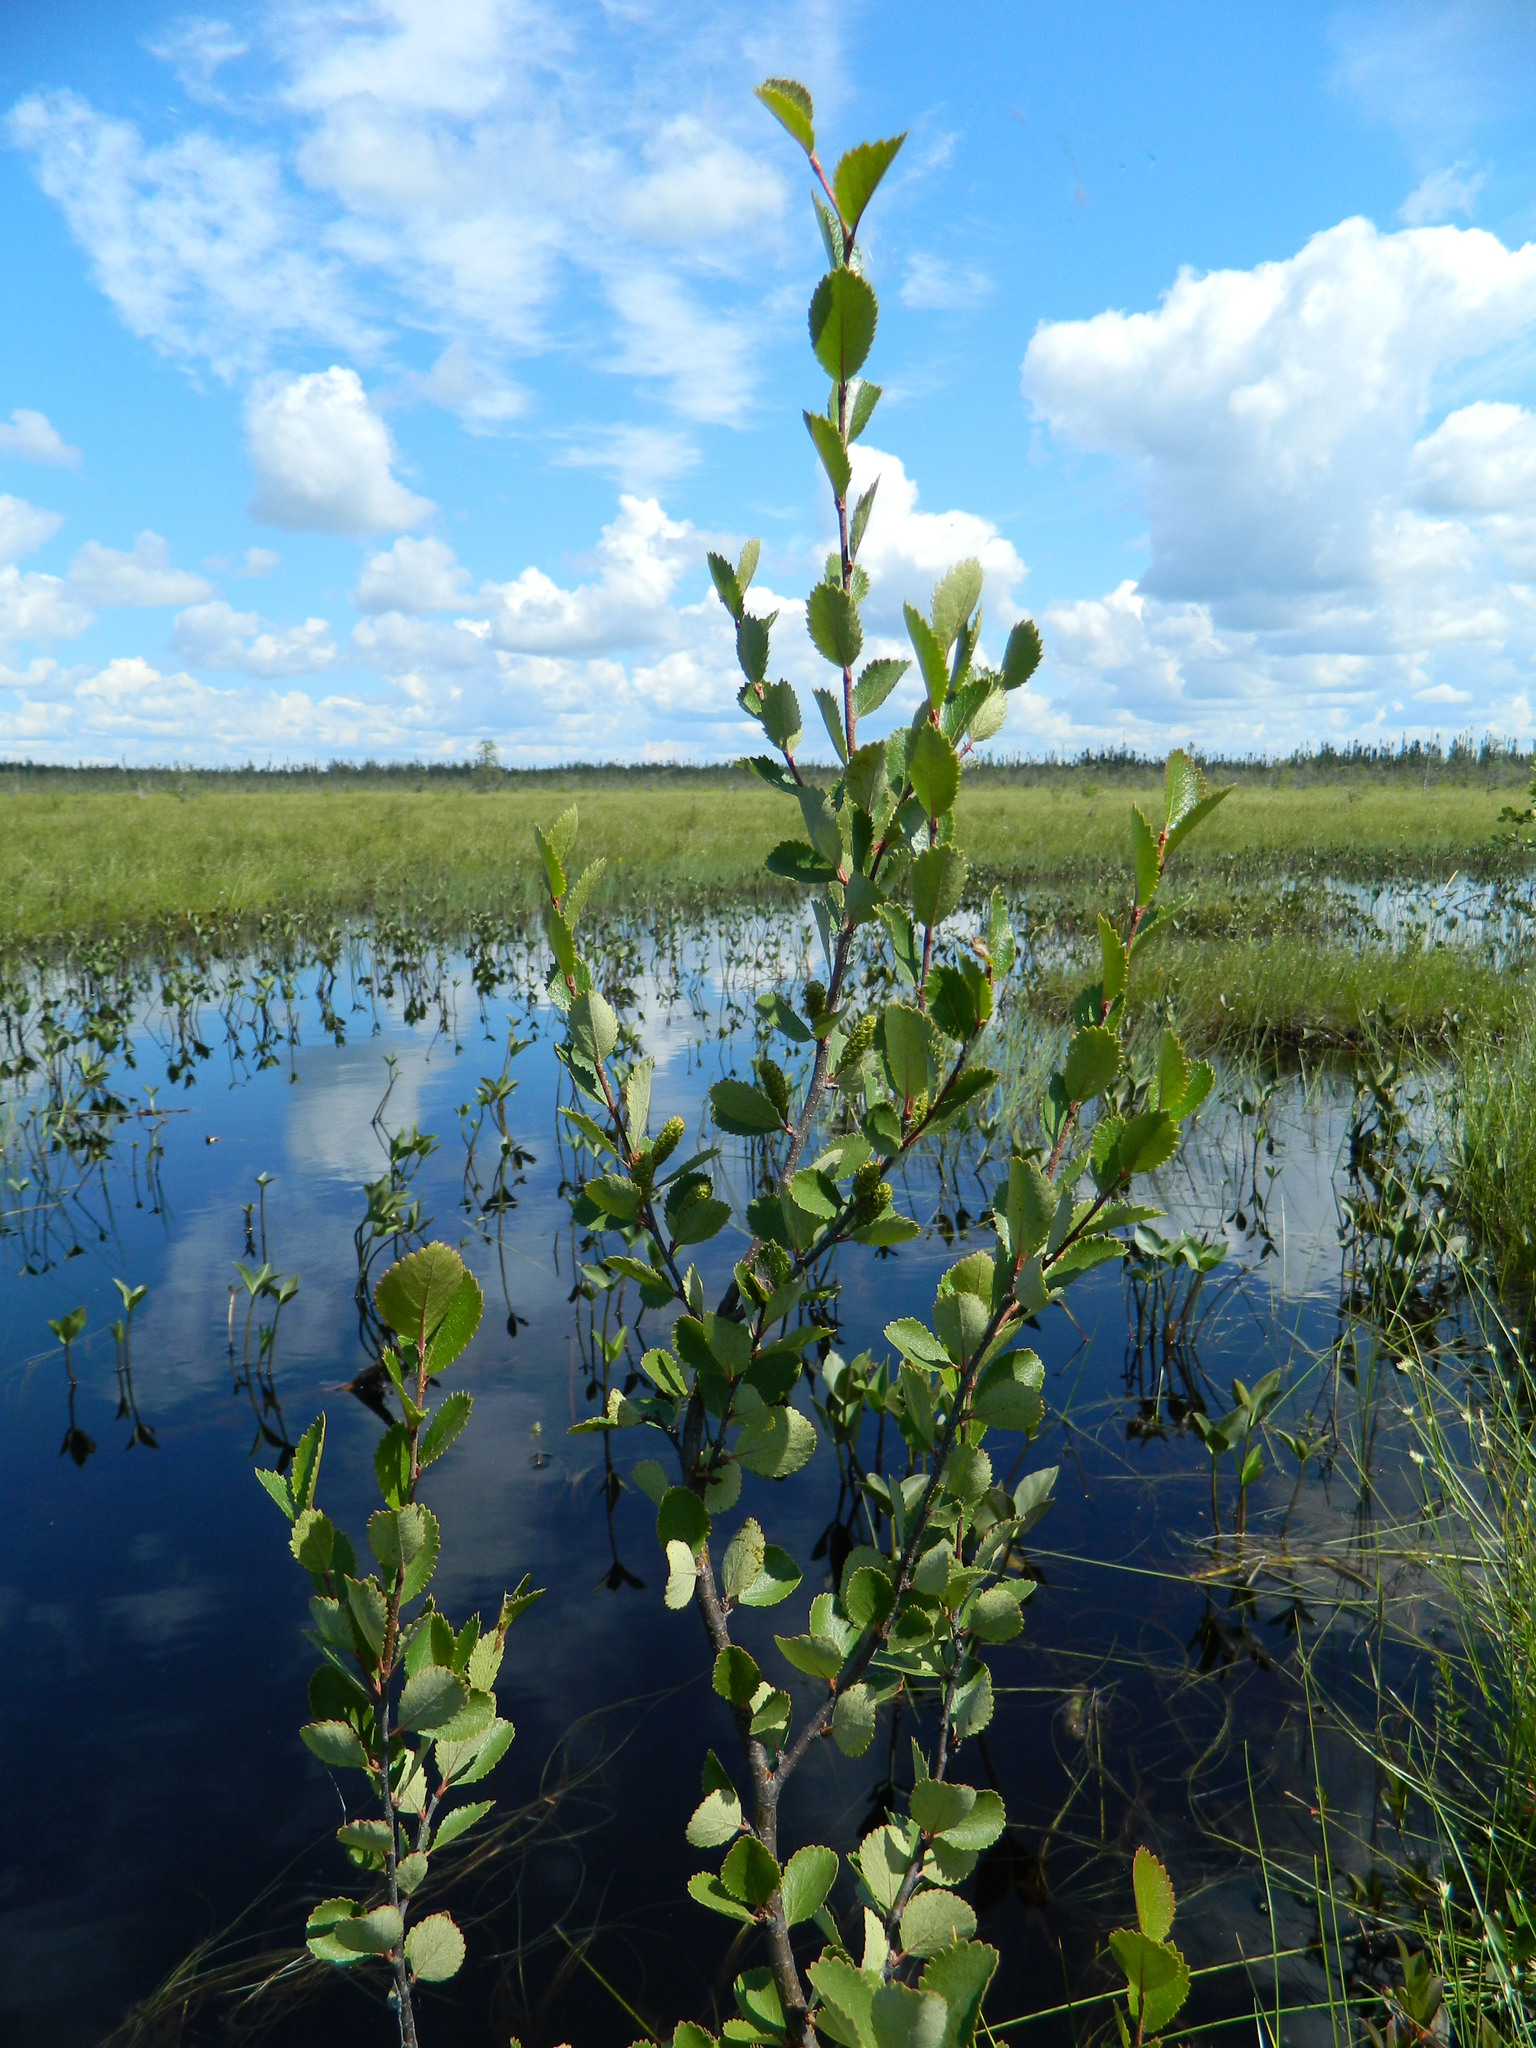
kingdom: Plantae
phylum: Tracheophyta
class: Magnoliopsida
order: Fagales
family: Betulaceae
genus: Betula
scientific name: Betula pumila
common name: Bog birch
